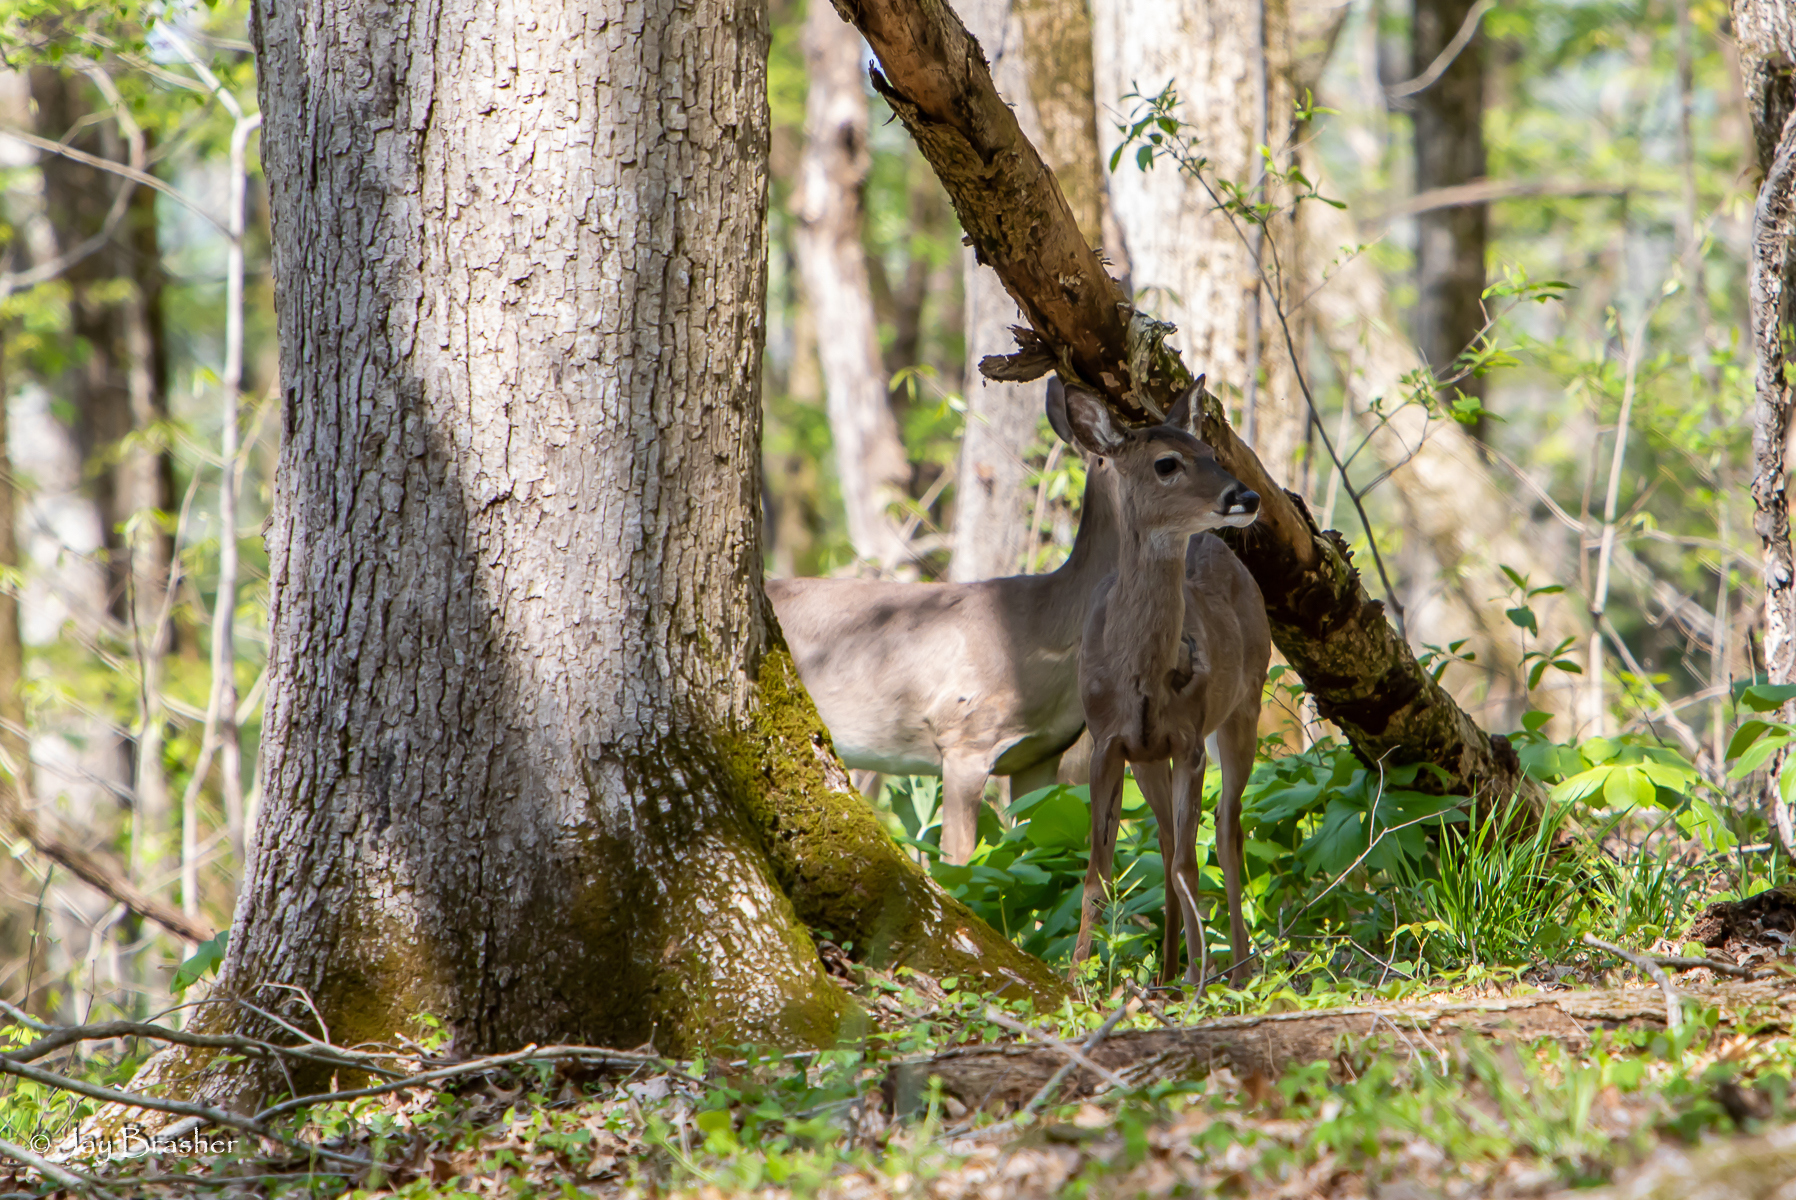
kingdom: Animalia
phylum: Chordata
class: Mammalia
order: Artiodactyla
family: Cervidae
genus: Odocoileus
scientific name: Odocoileus virginianus
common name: White-tailed deer
